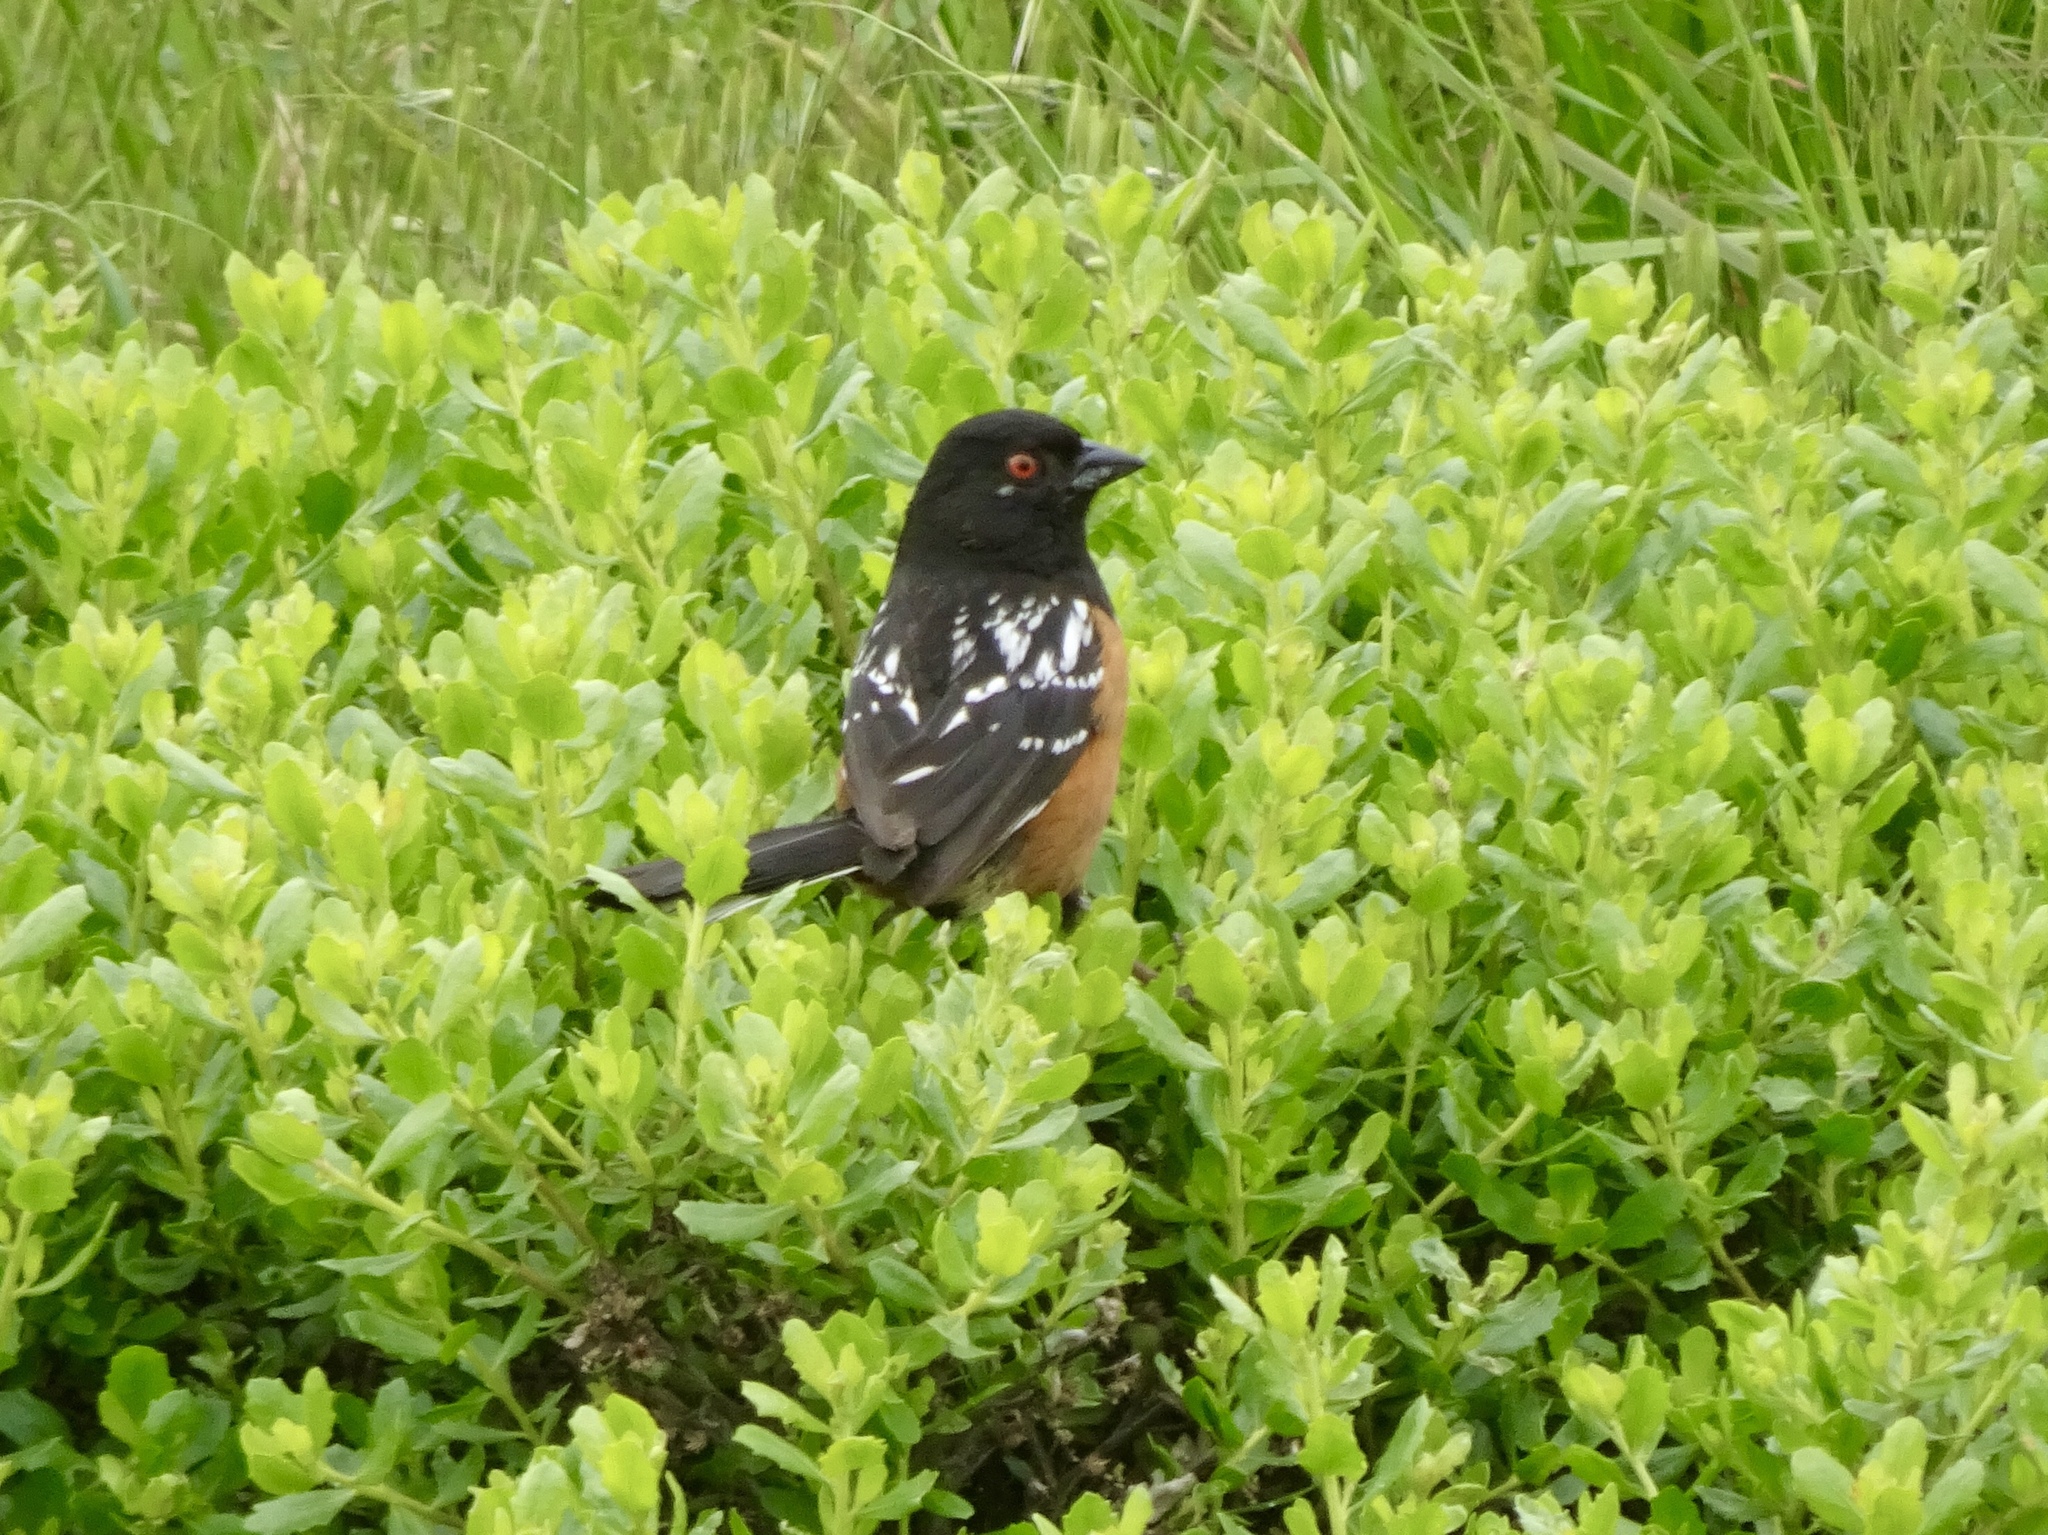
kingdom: Animalia
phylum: Chordata
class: Aves
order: Passeriformes
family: Passerellidae
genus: Pipilo
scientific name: Pipilo maculatus
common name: Spotted towhee
